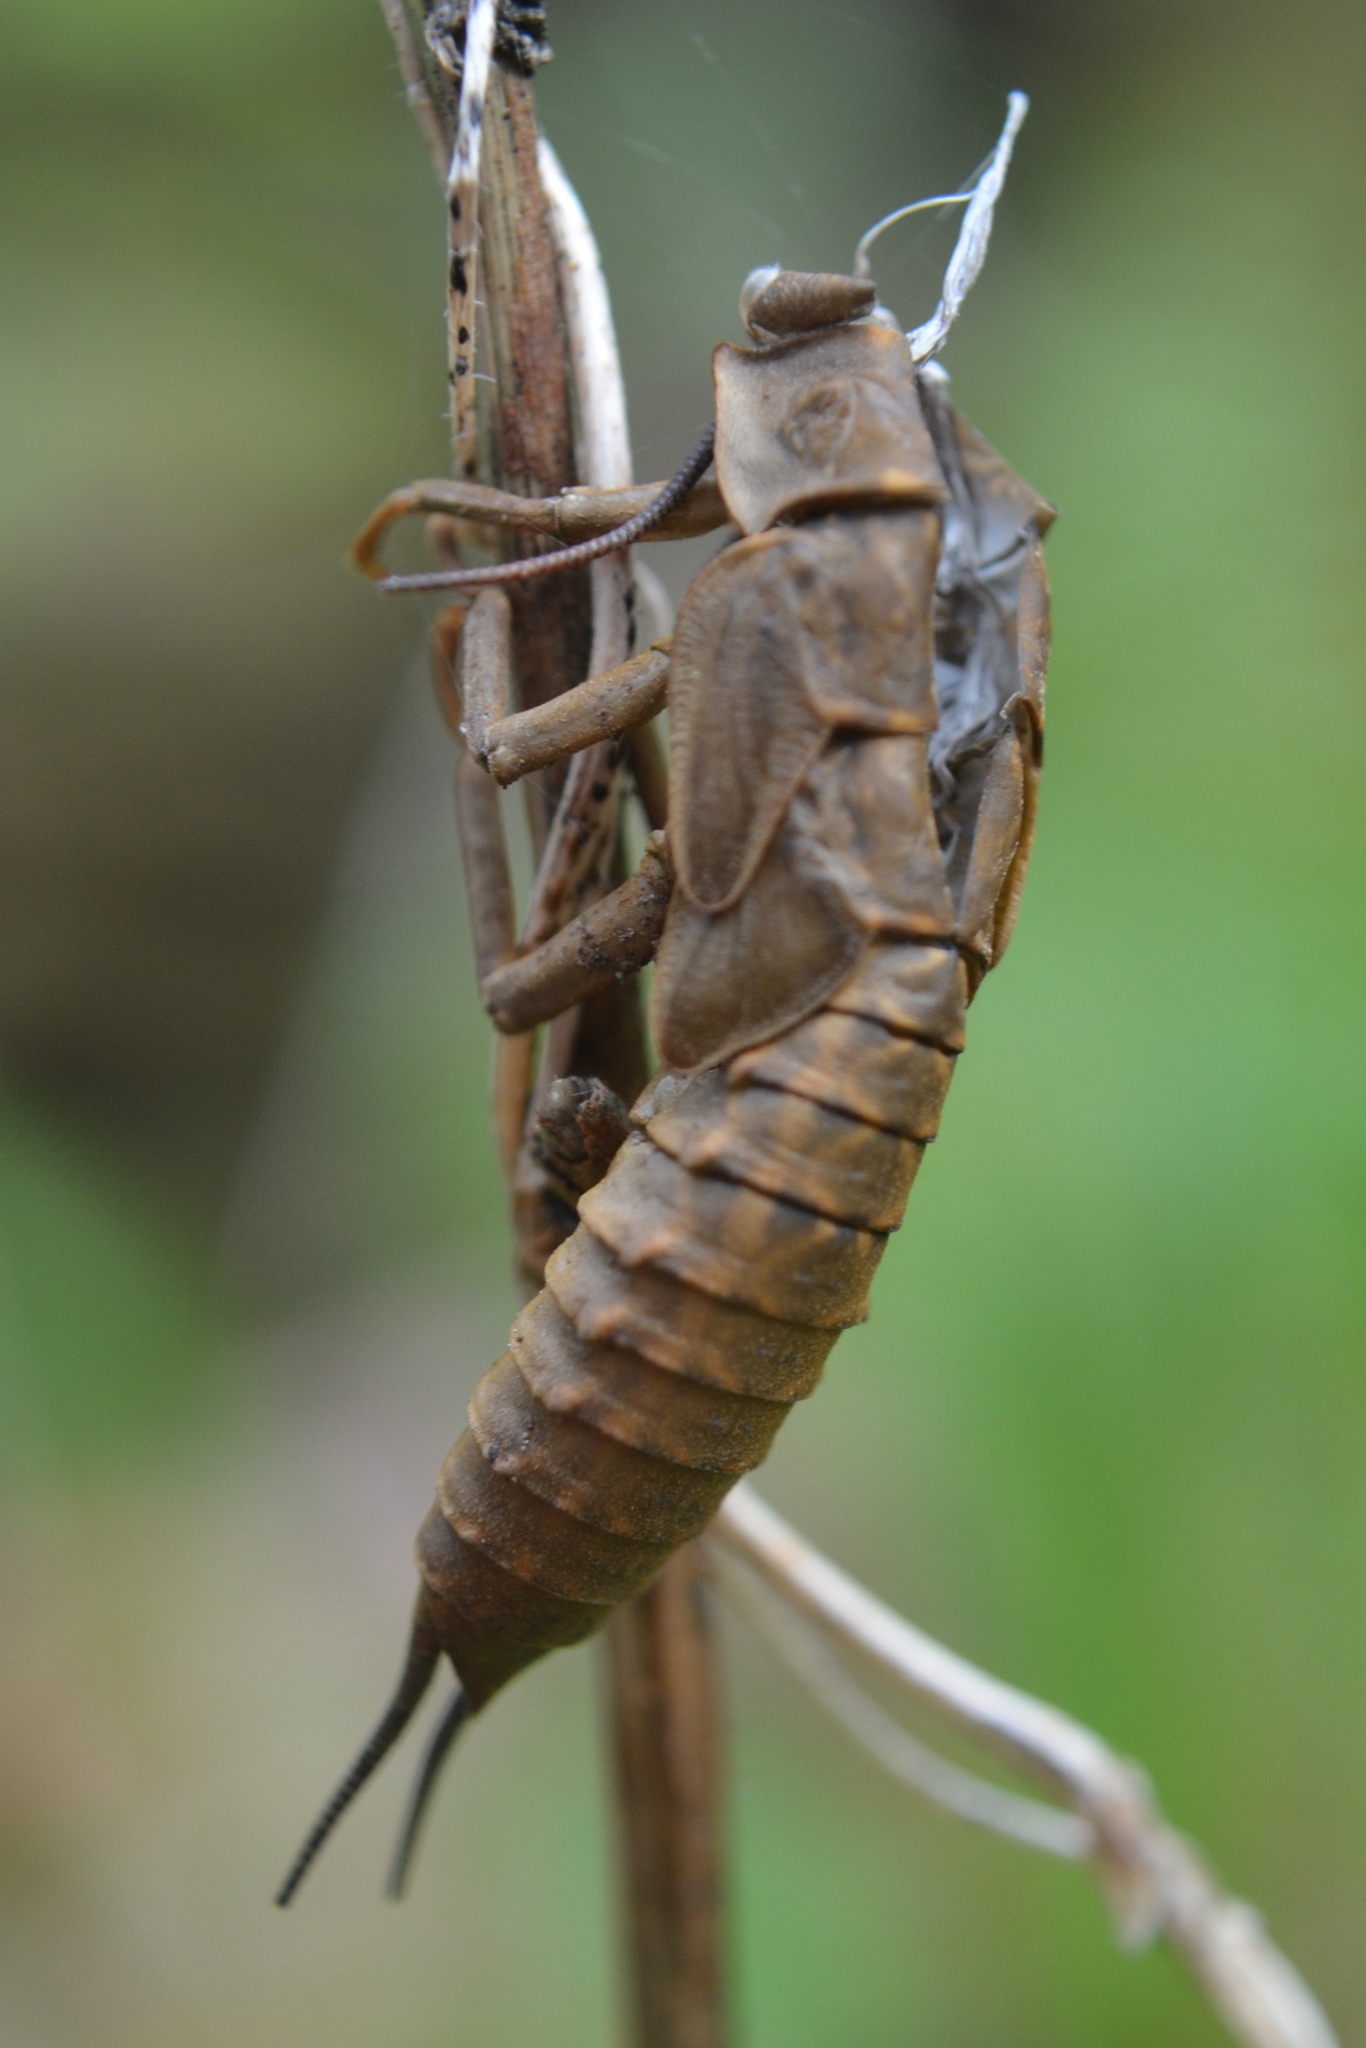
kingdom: Animalia
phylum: Arthropoda
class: Insecta
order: Plecoptera
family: Pteronarcyidae
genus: Pteronarcys
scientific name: Pteronarcys dorsata
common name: American salmonfly
